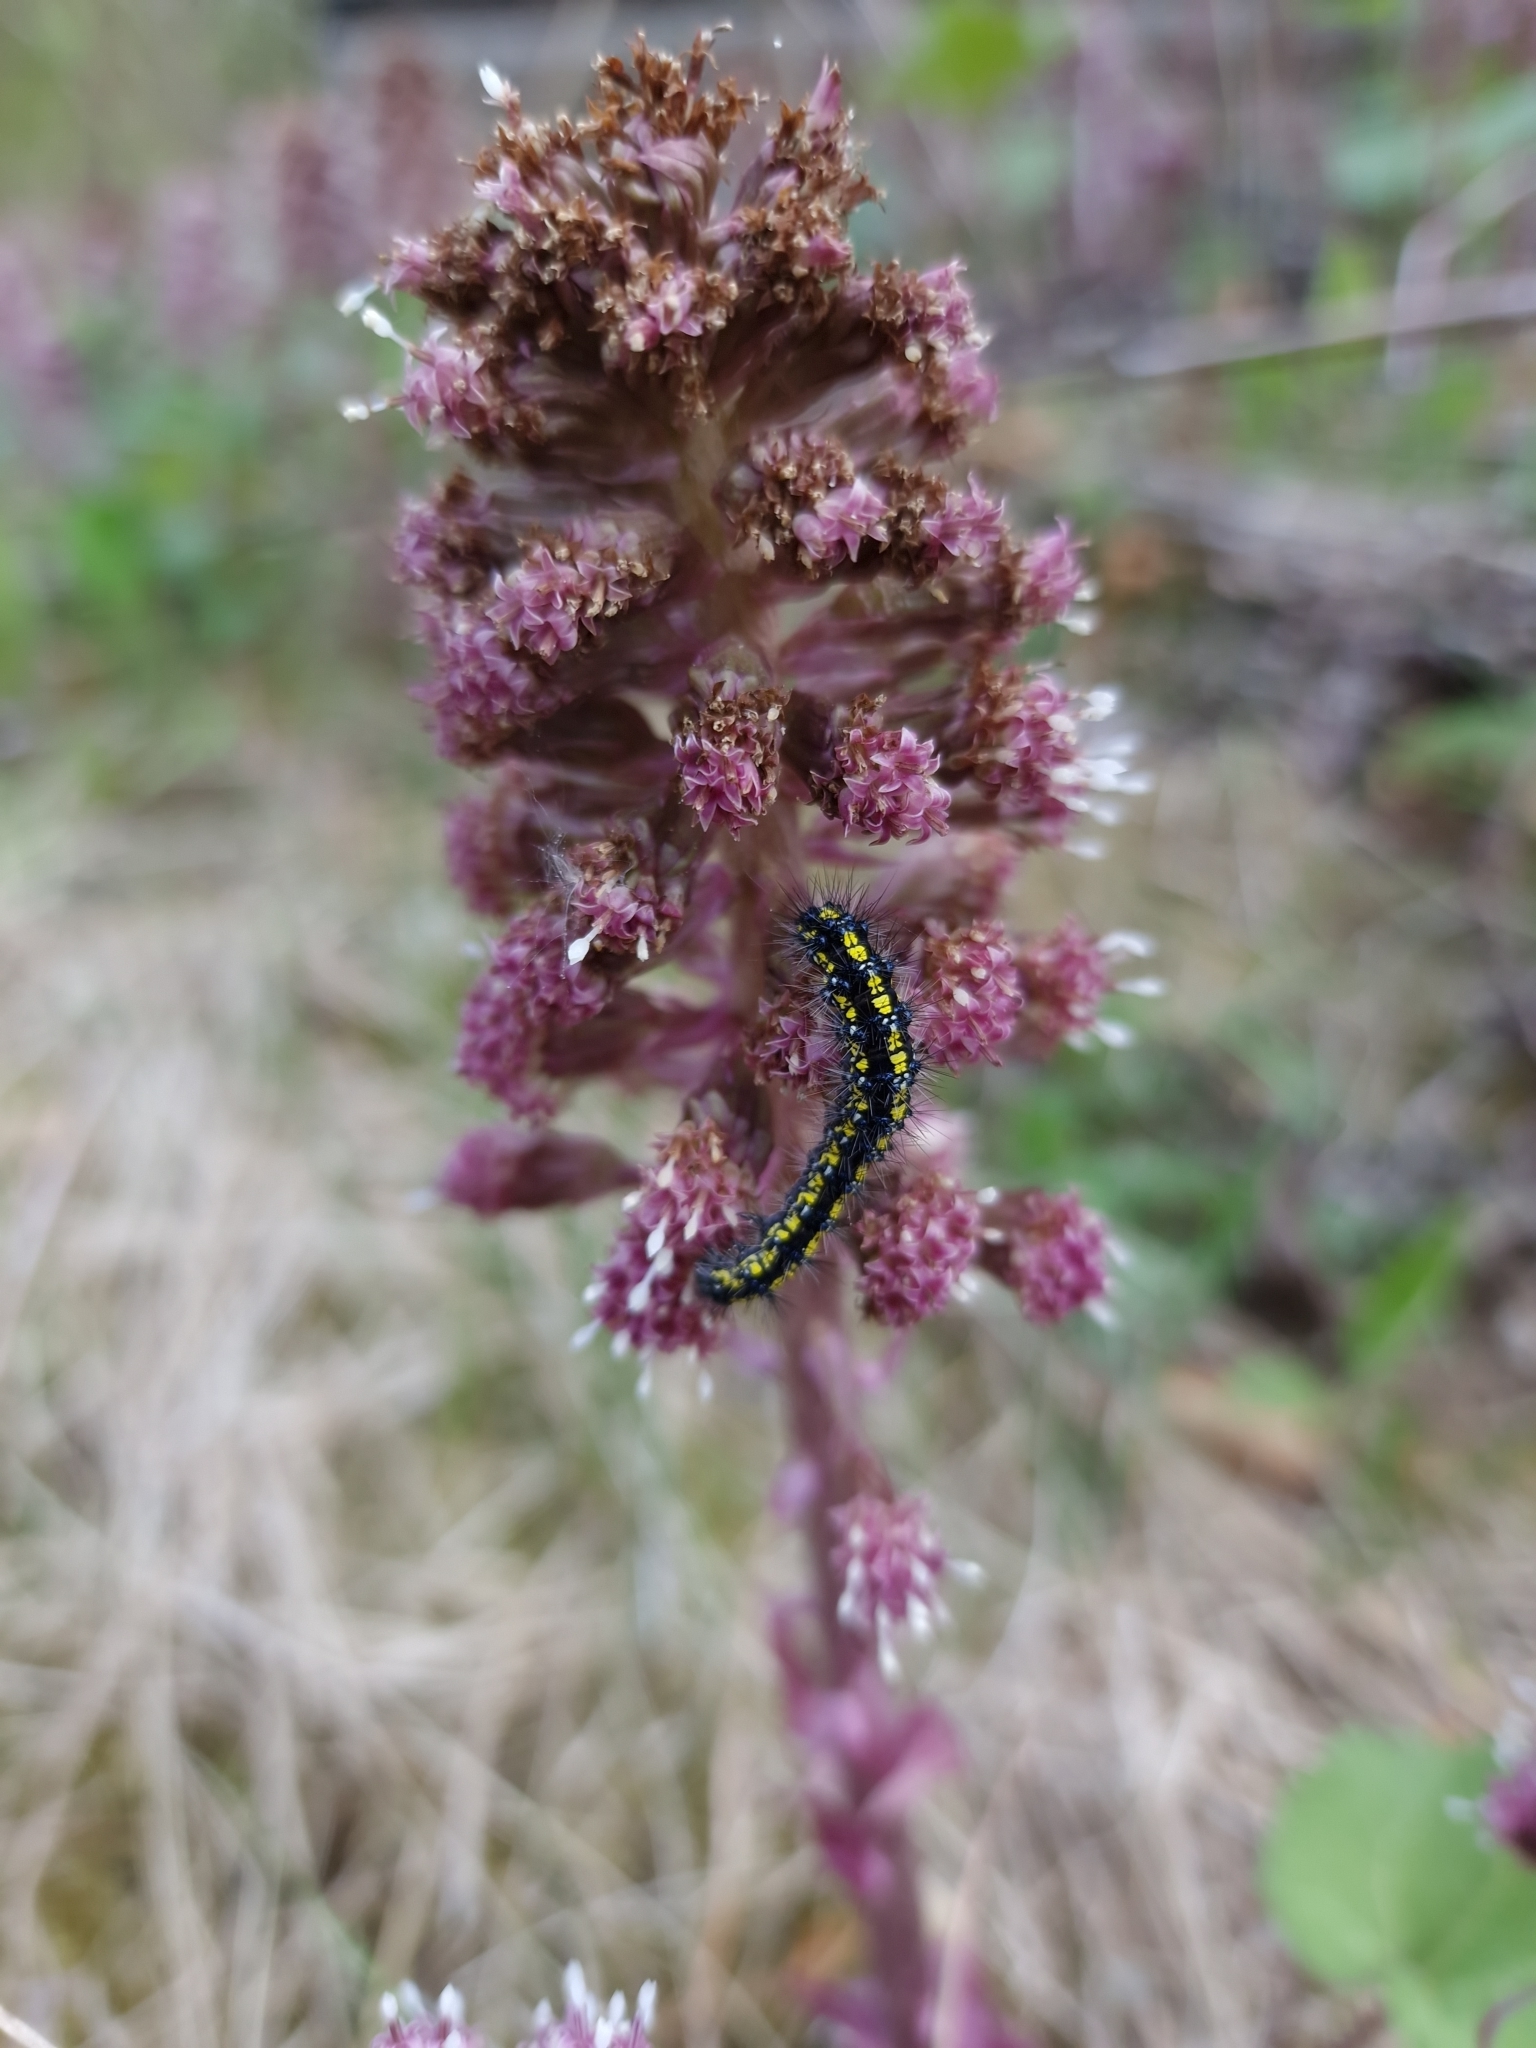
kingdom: Animalia
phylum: Arthropoda
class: Insecta
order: Lepidoptera
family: Erebidae
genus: Callimorpha
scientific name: Callimorpha dominula
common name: Scarlet tiger
